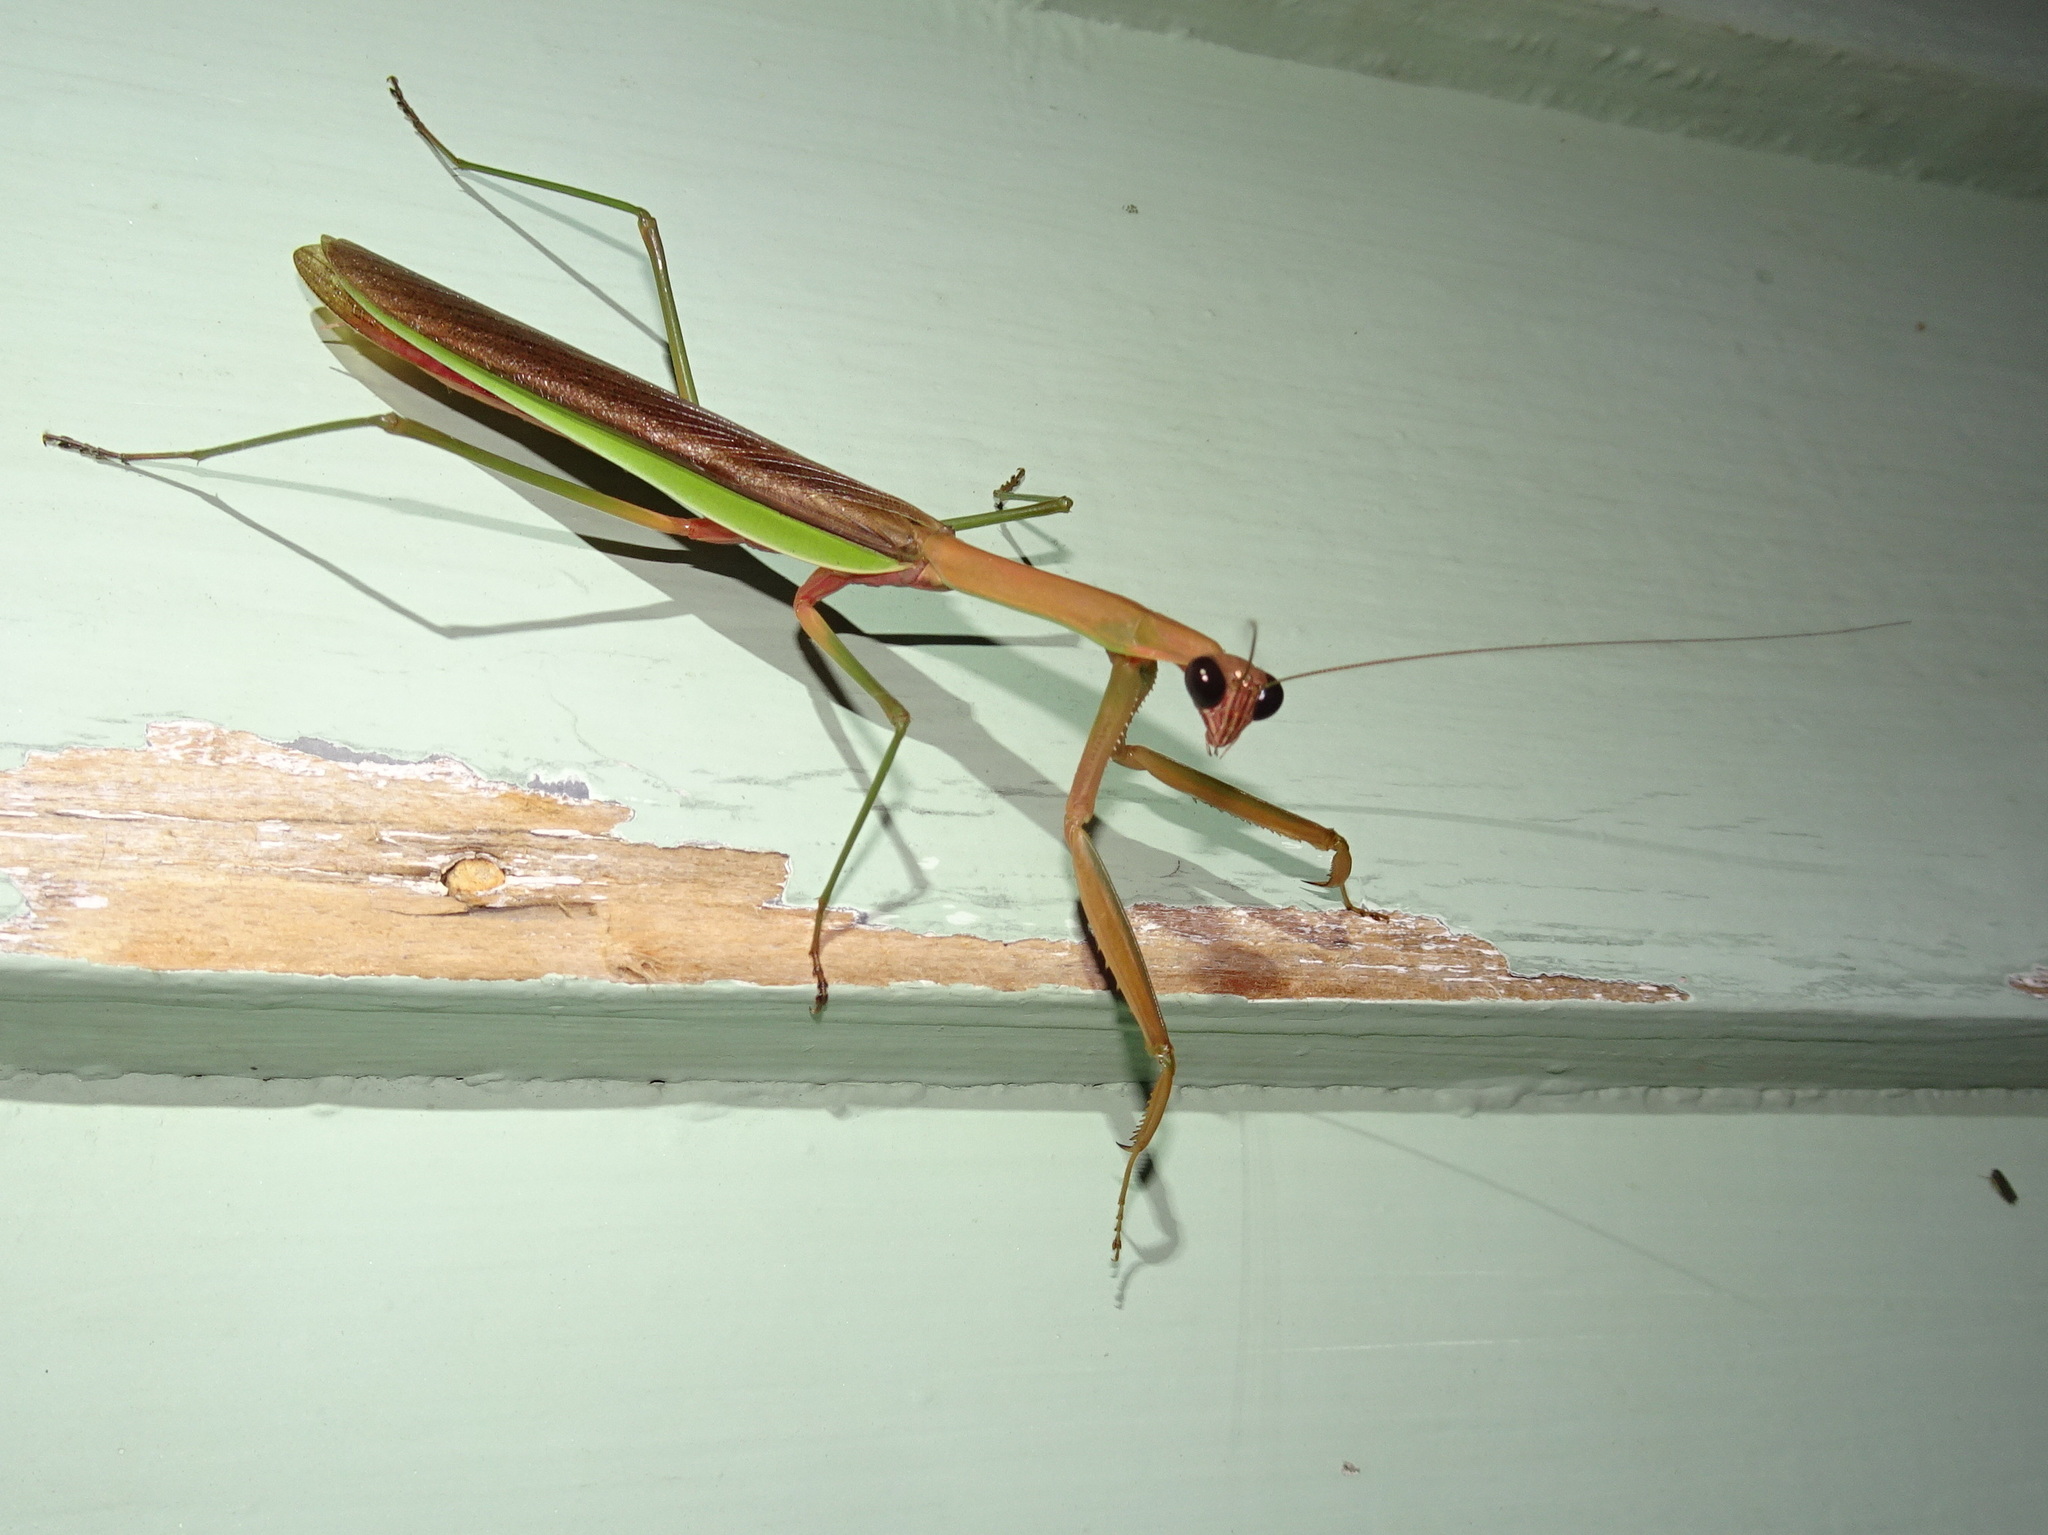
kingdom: Animalia
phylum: Arthropoda
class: Insecta
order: Mantodea
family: Mantidae
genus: Tenodera
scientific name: Tenodera sinensis
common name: Chinese mantis
